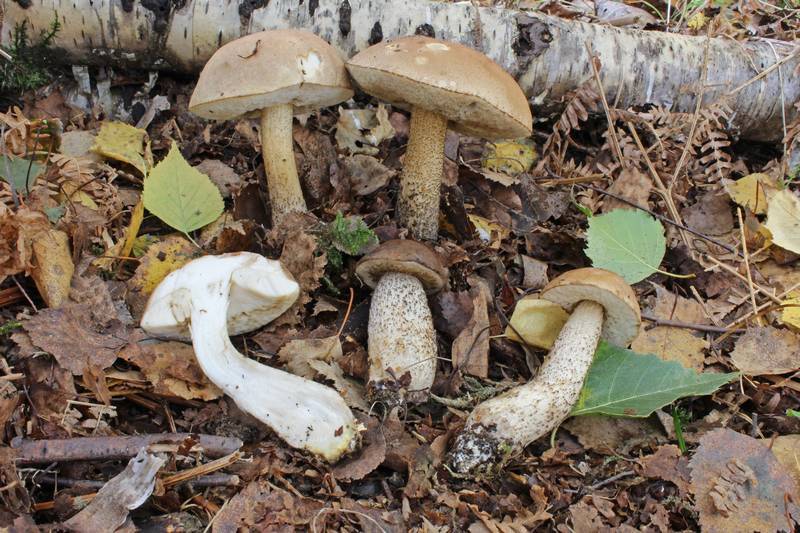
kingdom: Fungi
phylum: Basidiomycota
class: Agaricomycetes
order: Boletales
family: Boletaceae
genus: Leccinum
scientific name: Leccinum scabrum
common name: Blushing bolete
